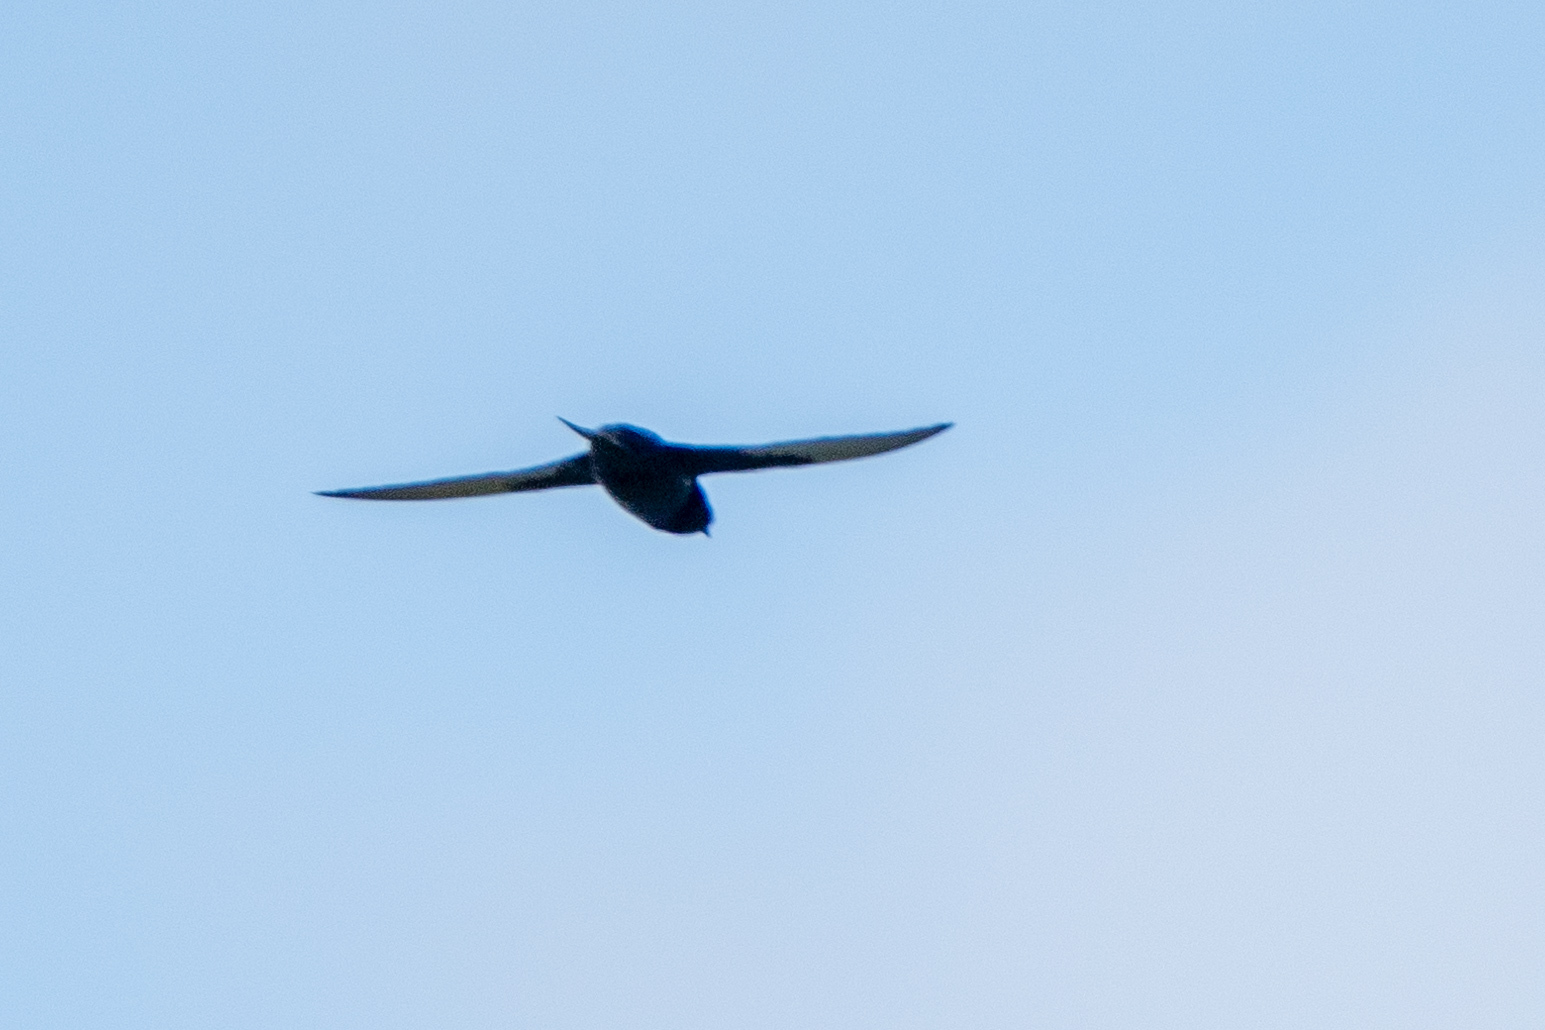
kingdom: Animalia
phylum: Chordata
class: Aves
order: Passeriformes
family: Hirundinidae
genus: Progne
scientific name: Progne subis
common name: Purple martin
